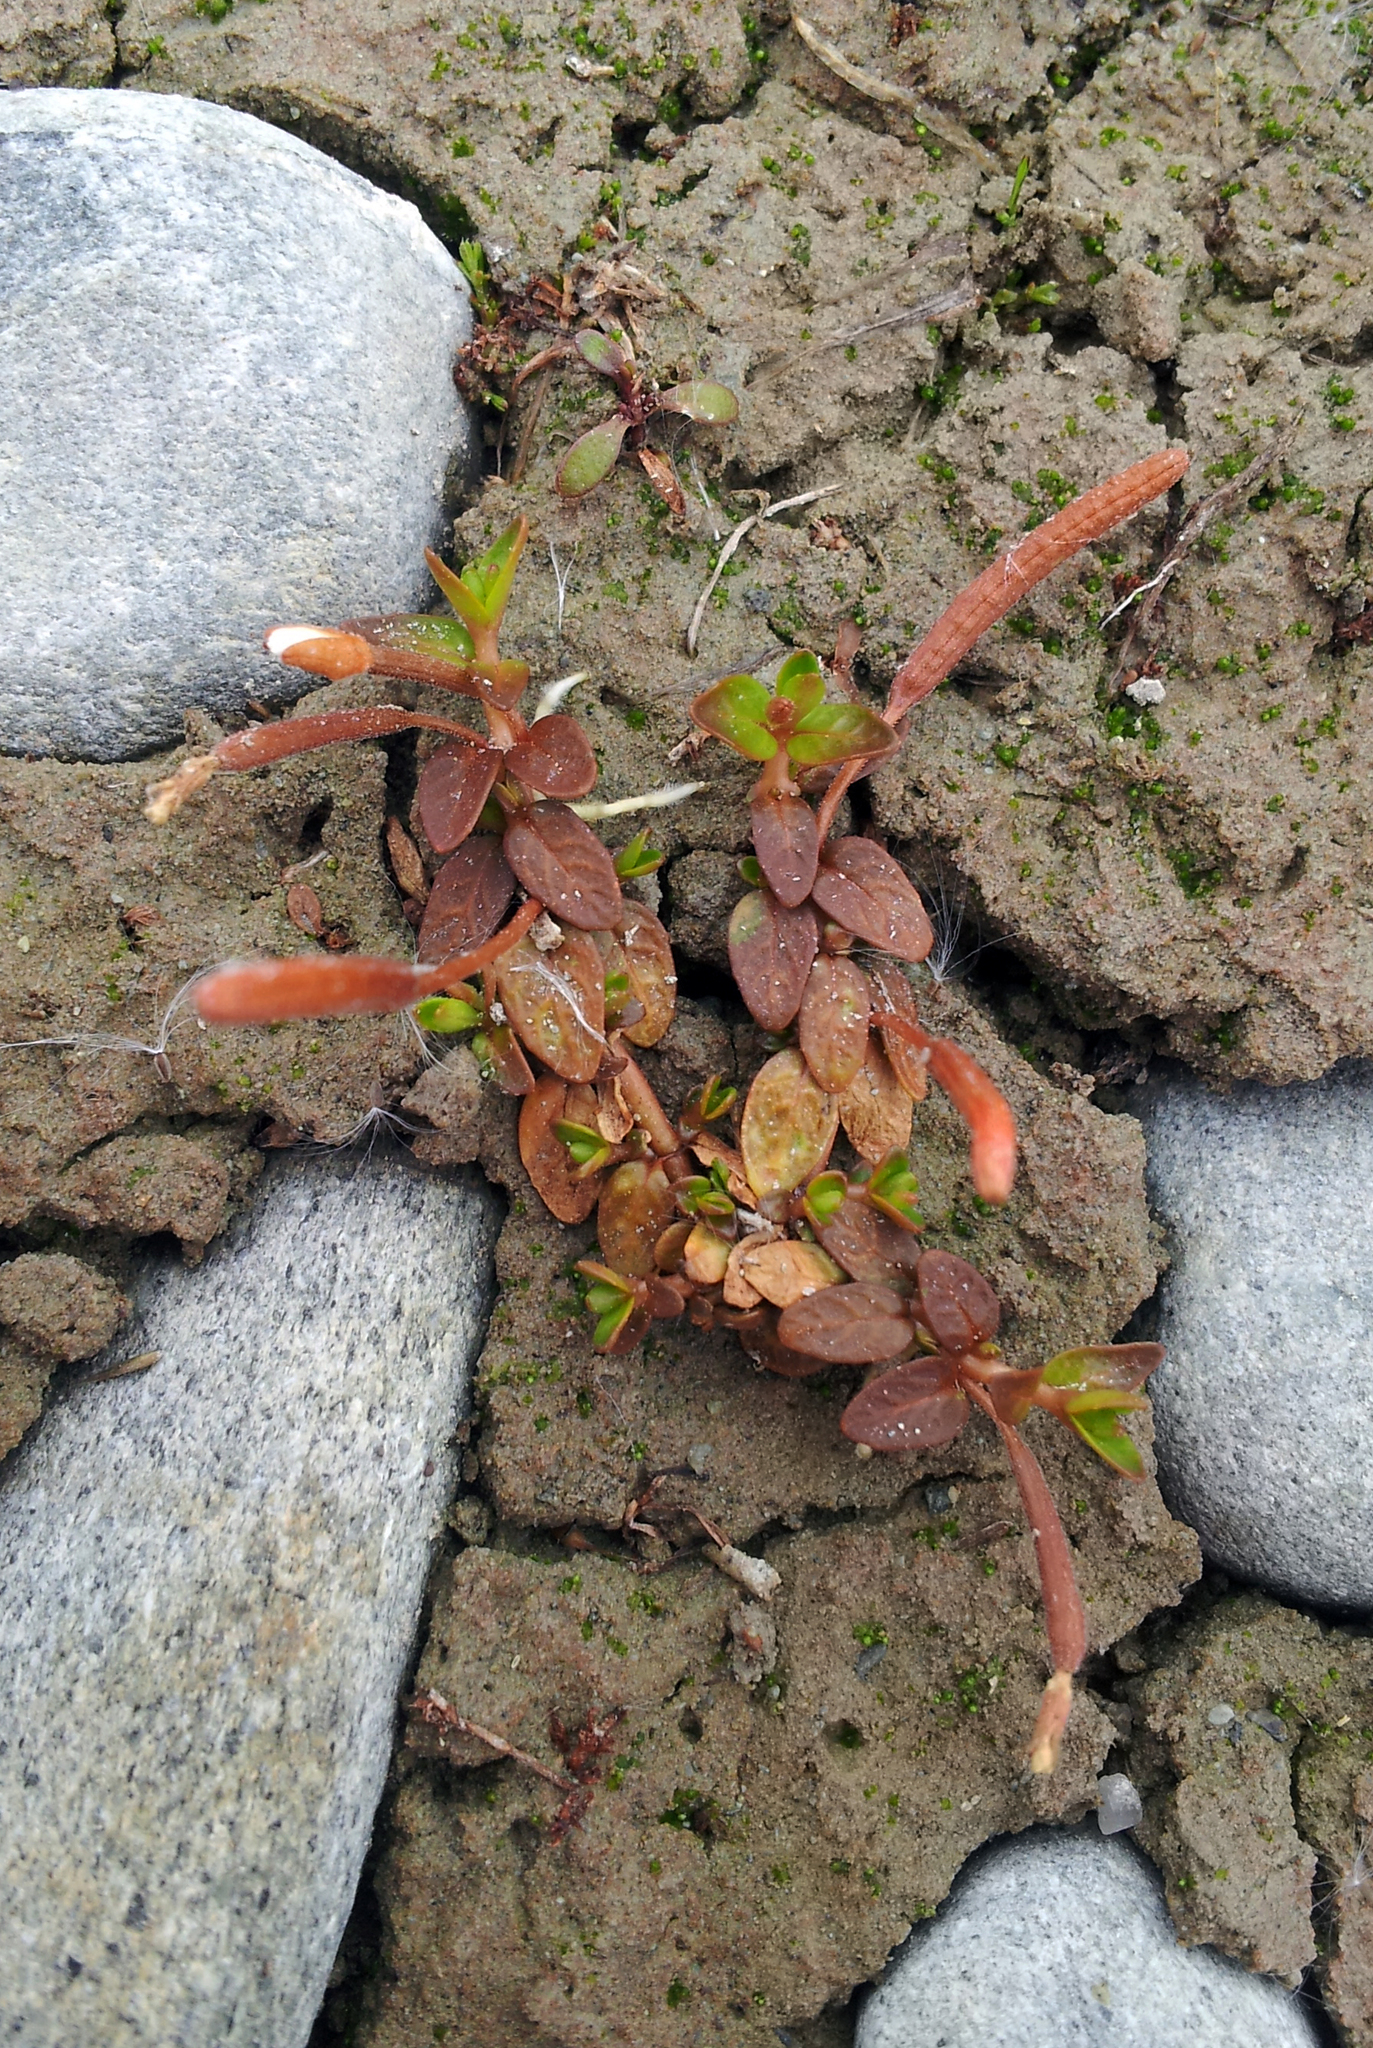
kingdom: Plantae
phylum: Tracheophyta
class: Magnoliopsida
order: Myrtales
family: Onagraceae
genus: Epilobium
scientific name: Epilobium angustum
